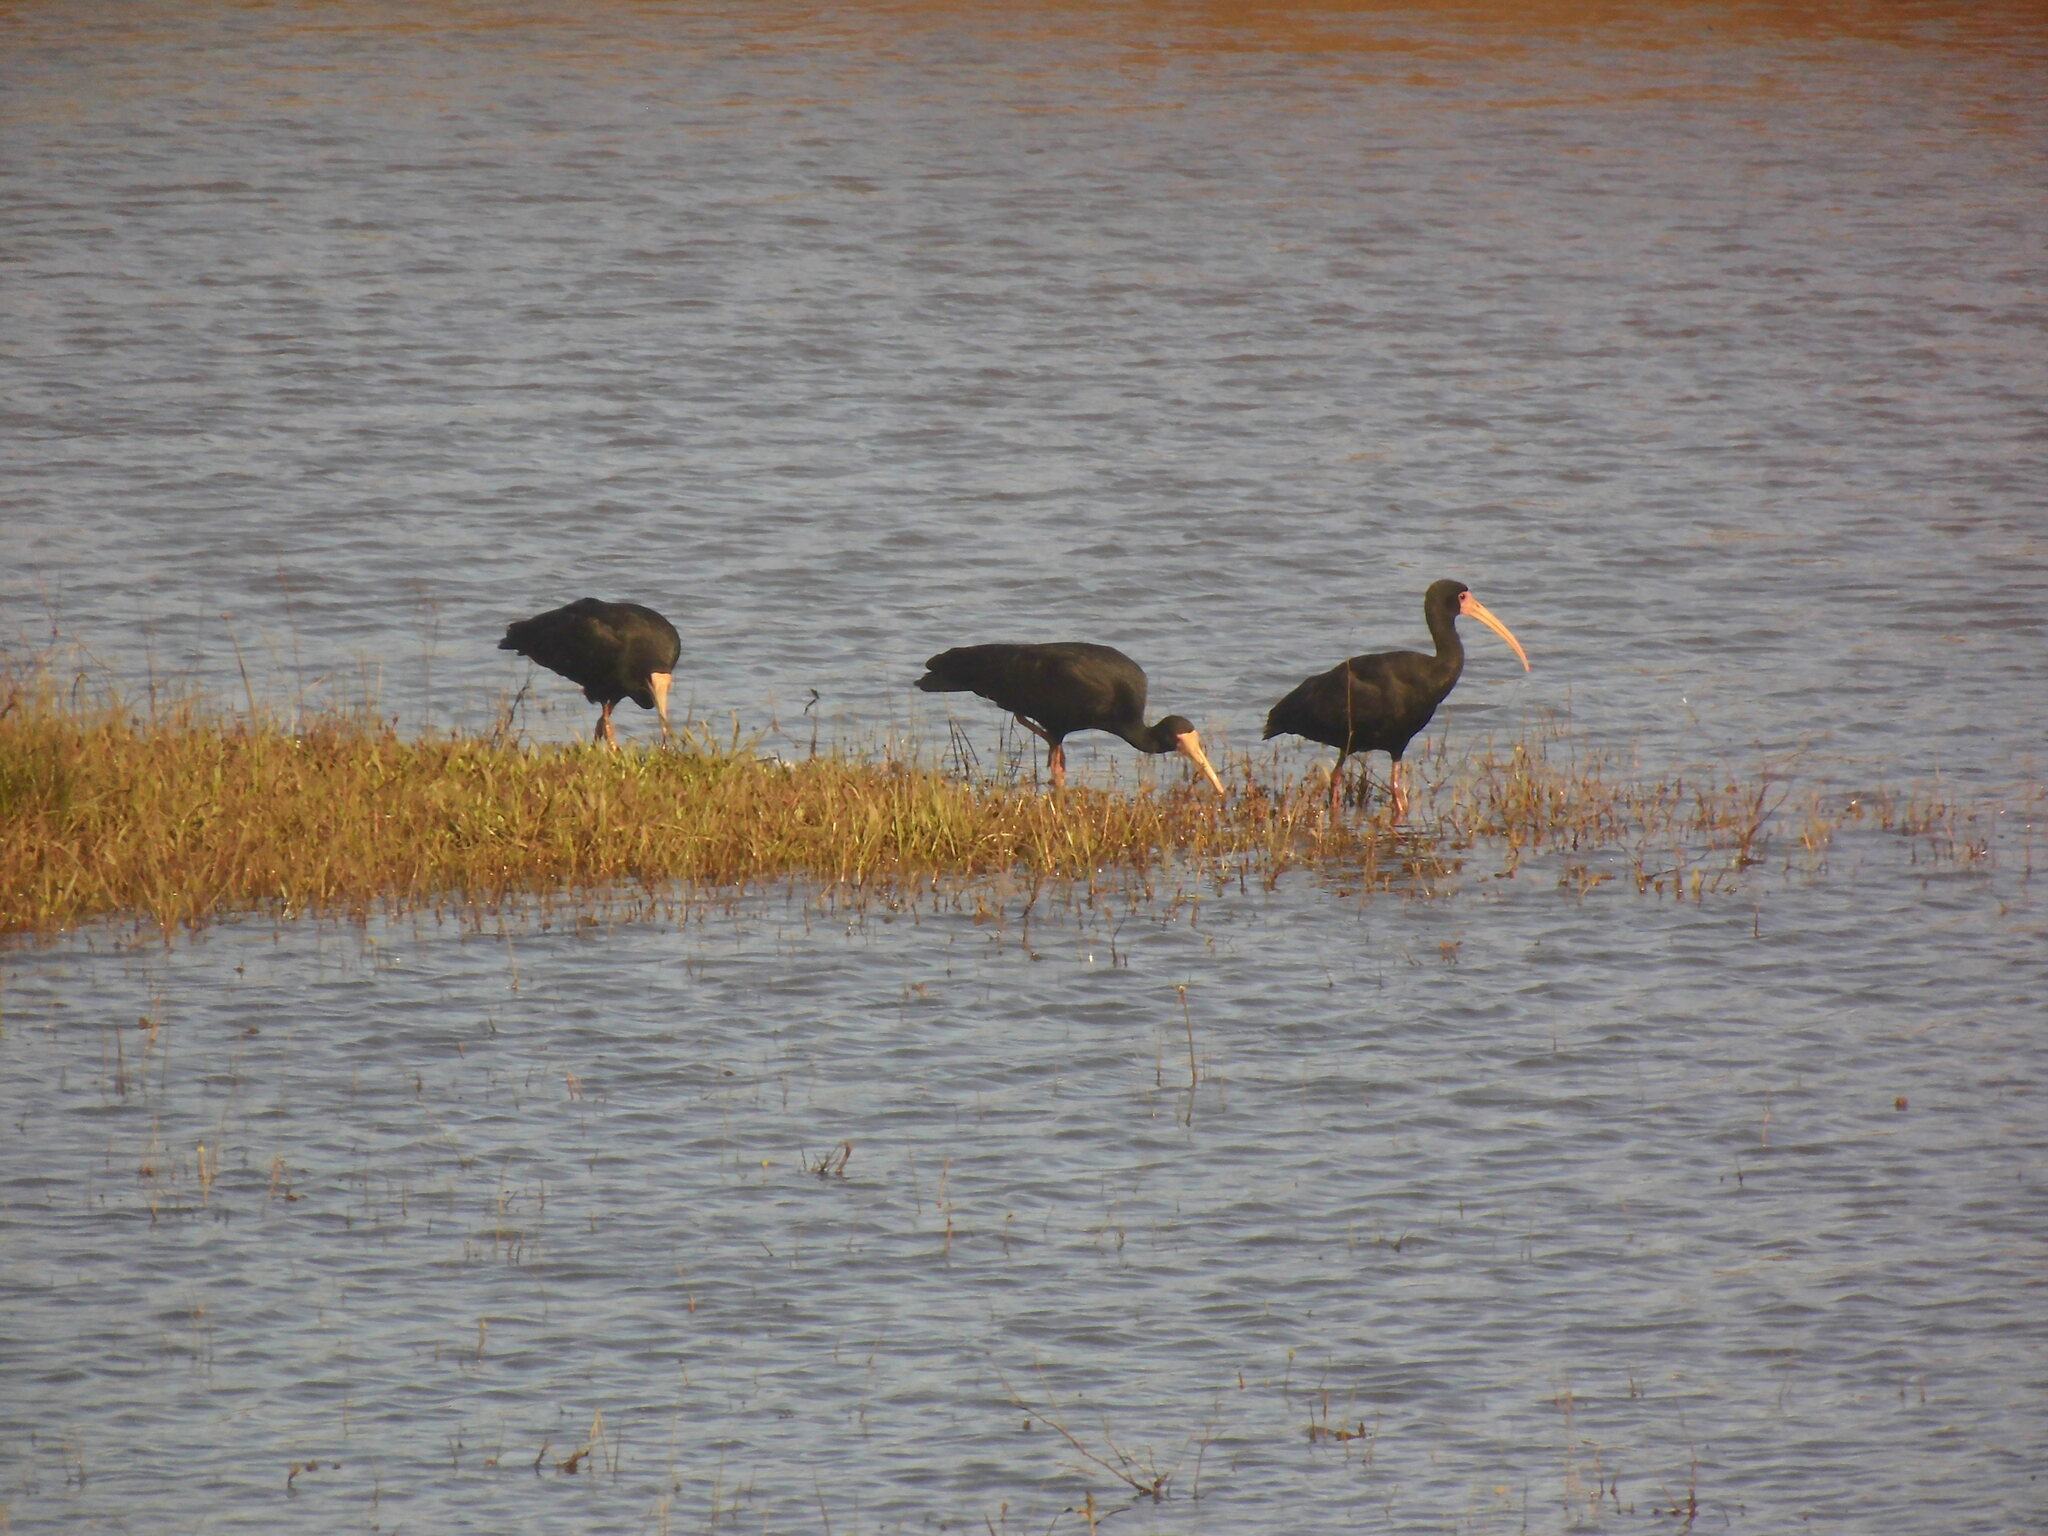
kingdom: Animalia
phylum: Chordata
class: Aves
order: Pelecaniformes
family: Threskiornithidae
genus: Phimosus
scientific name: Phimosus infuscatus
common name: Bare-faced ibis
